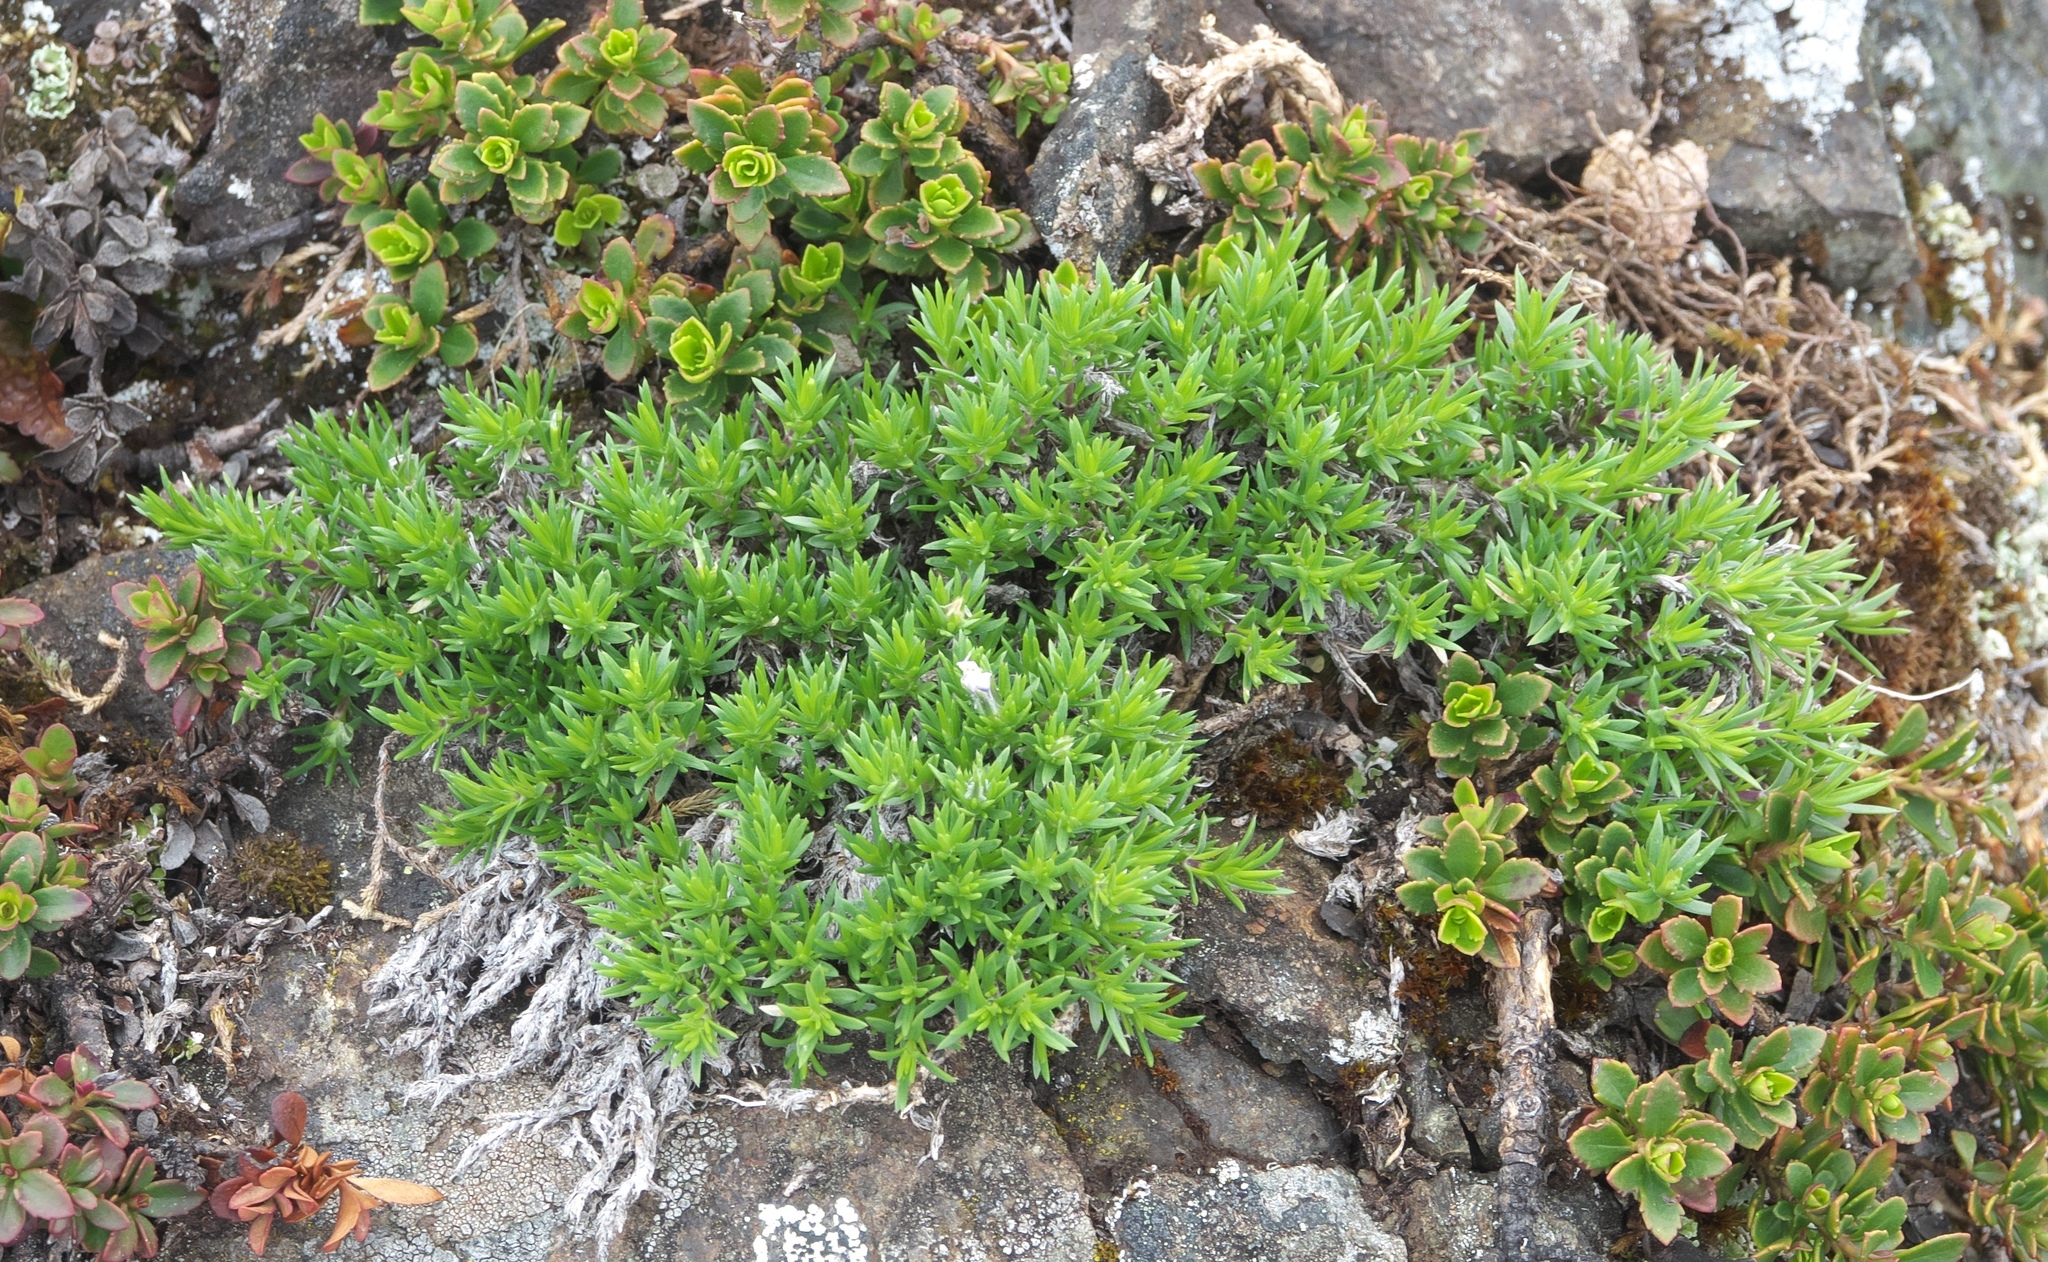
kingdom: Plantae
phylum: Tracheophyta
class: Magnoliopsida
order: Ericales
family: Polemoniaceae
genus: Phlox
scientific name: Phlox diffusa
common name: Mat phlox
